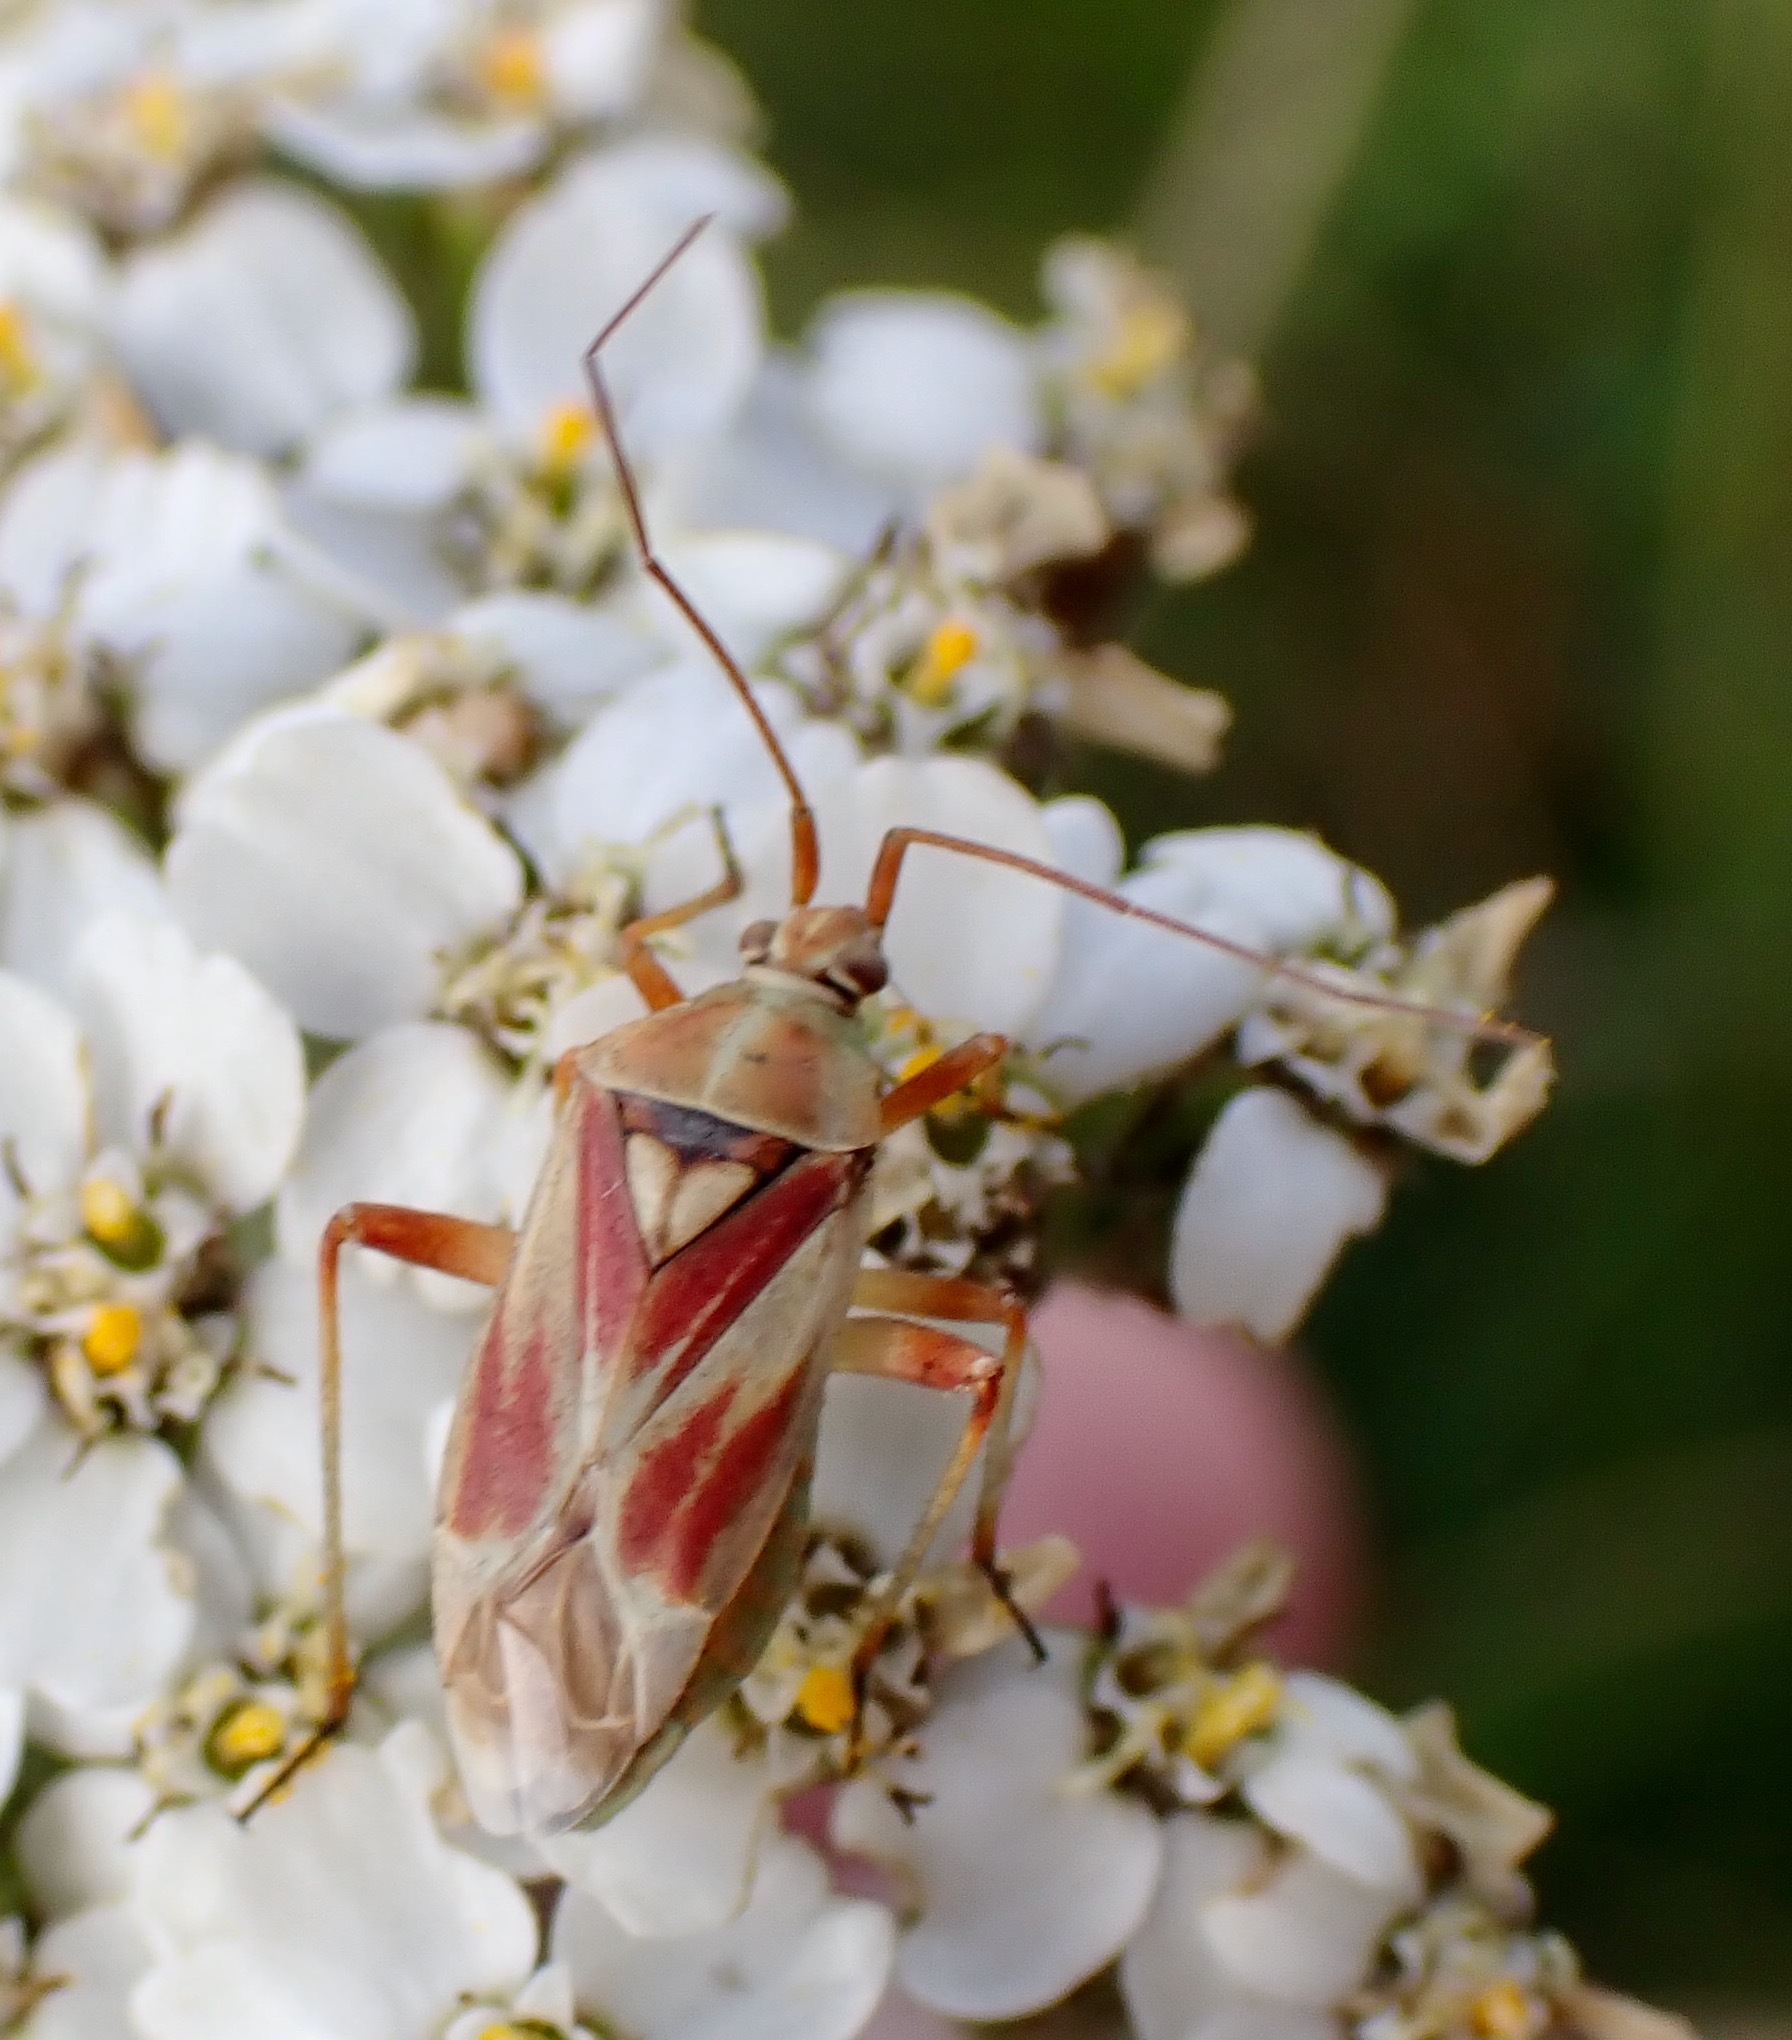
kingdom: Animalia
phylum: Arthropoda
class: Insecta
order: Hemiptera
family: Miridae
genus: Calocoris
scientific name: Calocoris roseomaculatus
